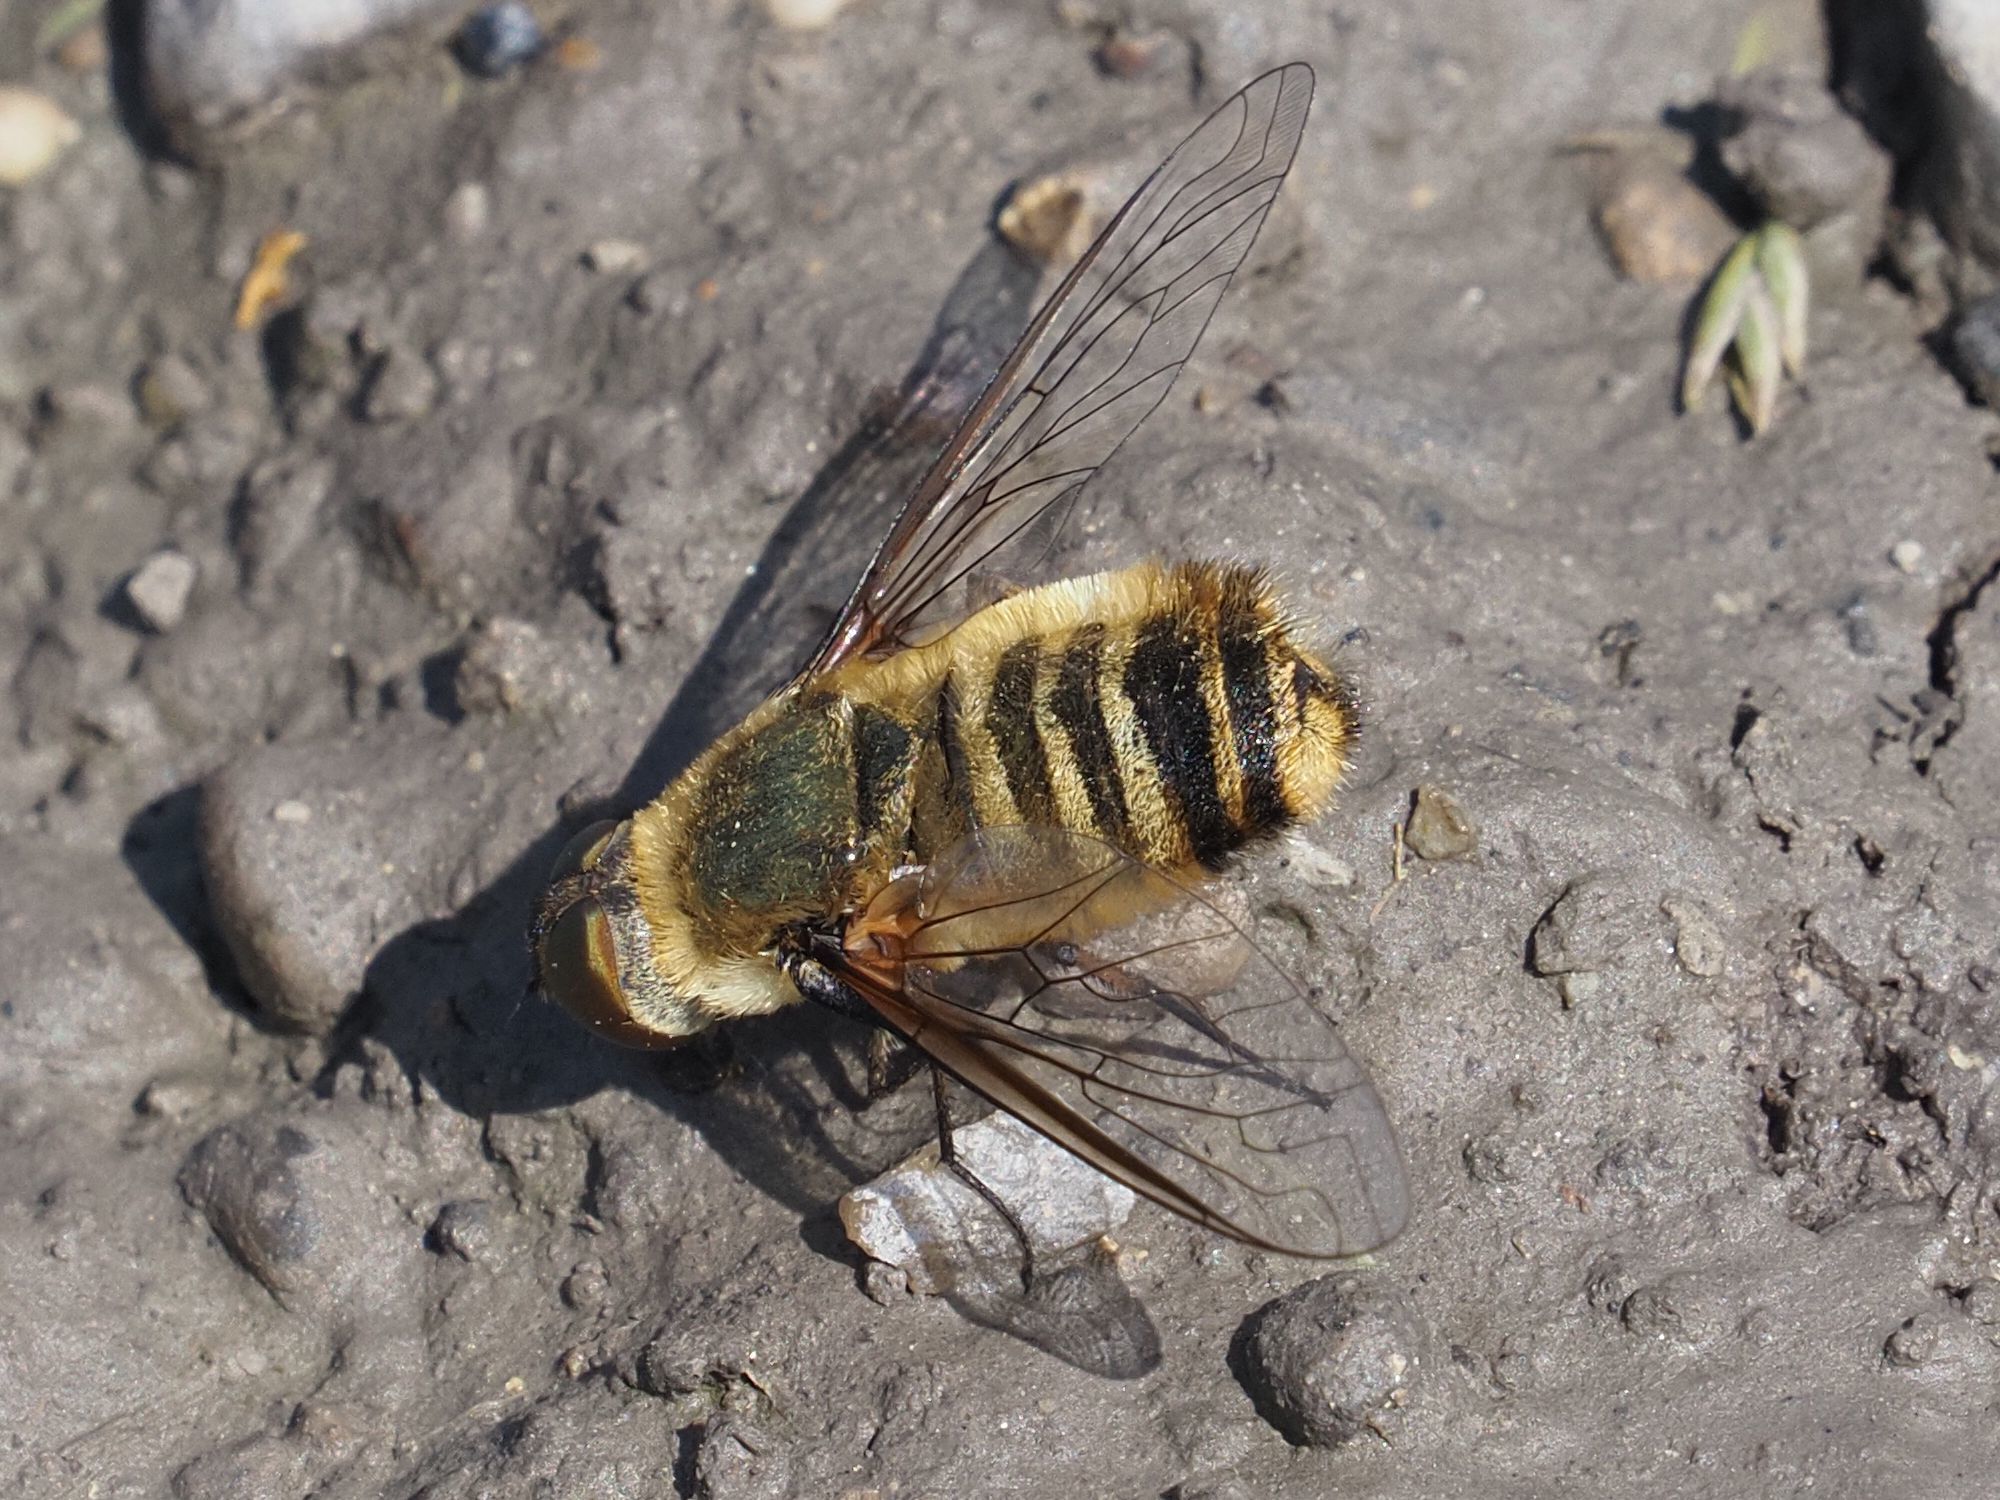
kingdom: Animalia
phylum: Arthropoda
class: Insecta
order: Diptera
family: Bombyliidae
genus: Villa
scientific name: Villa hottentotta
